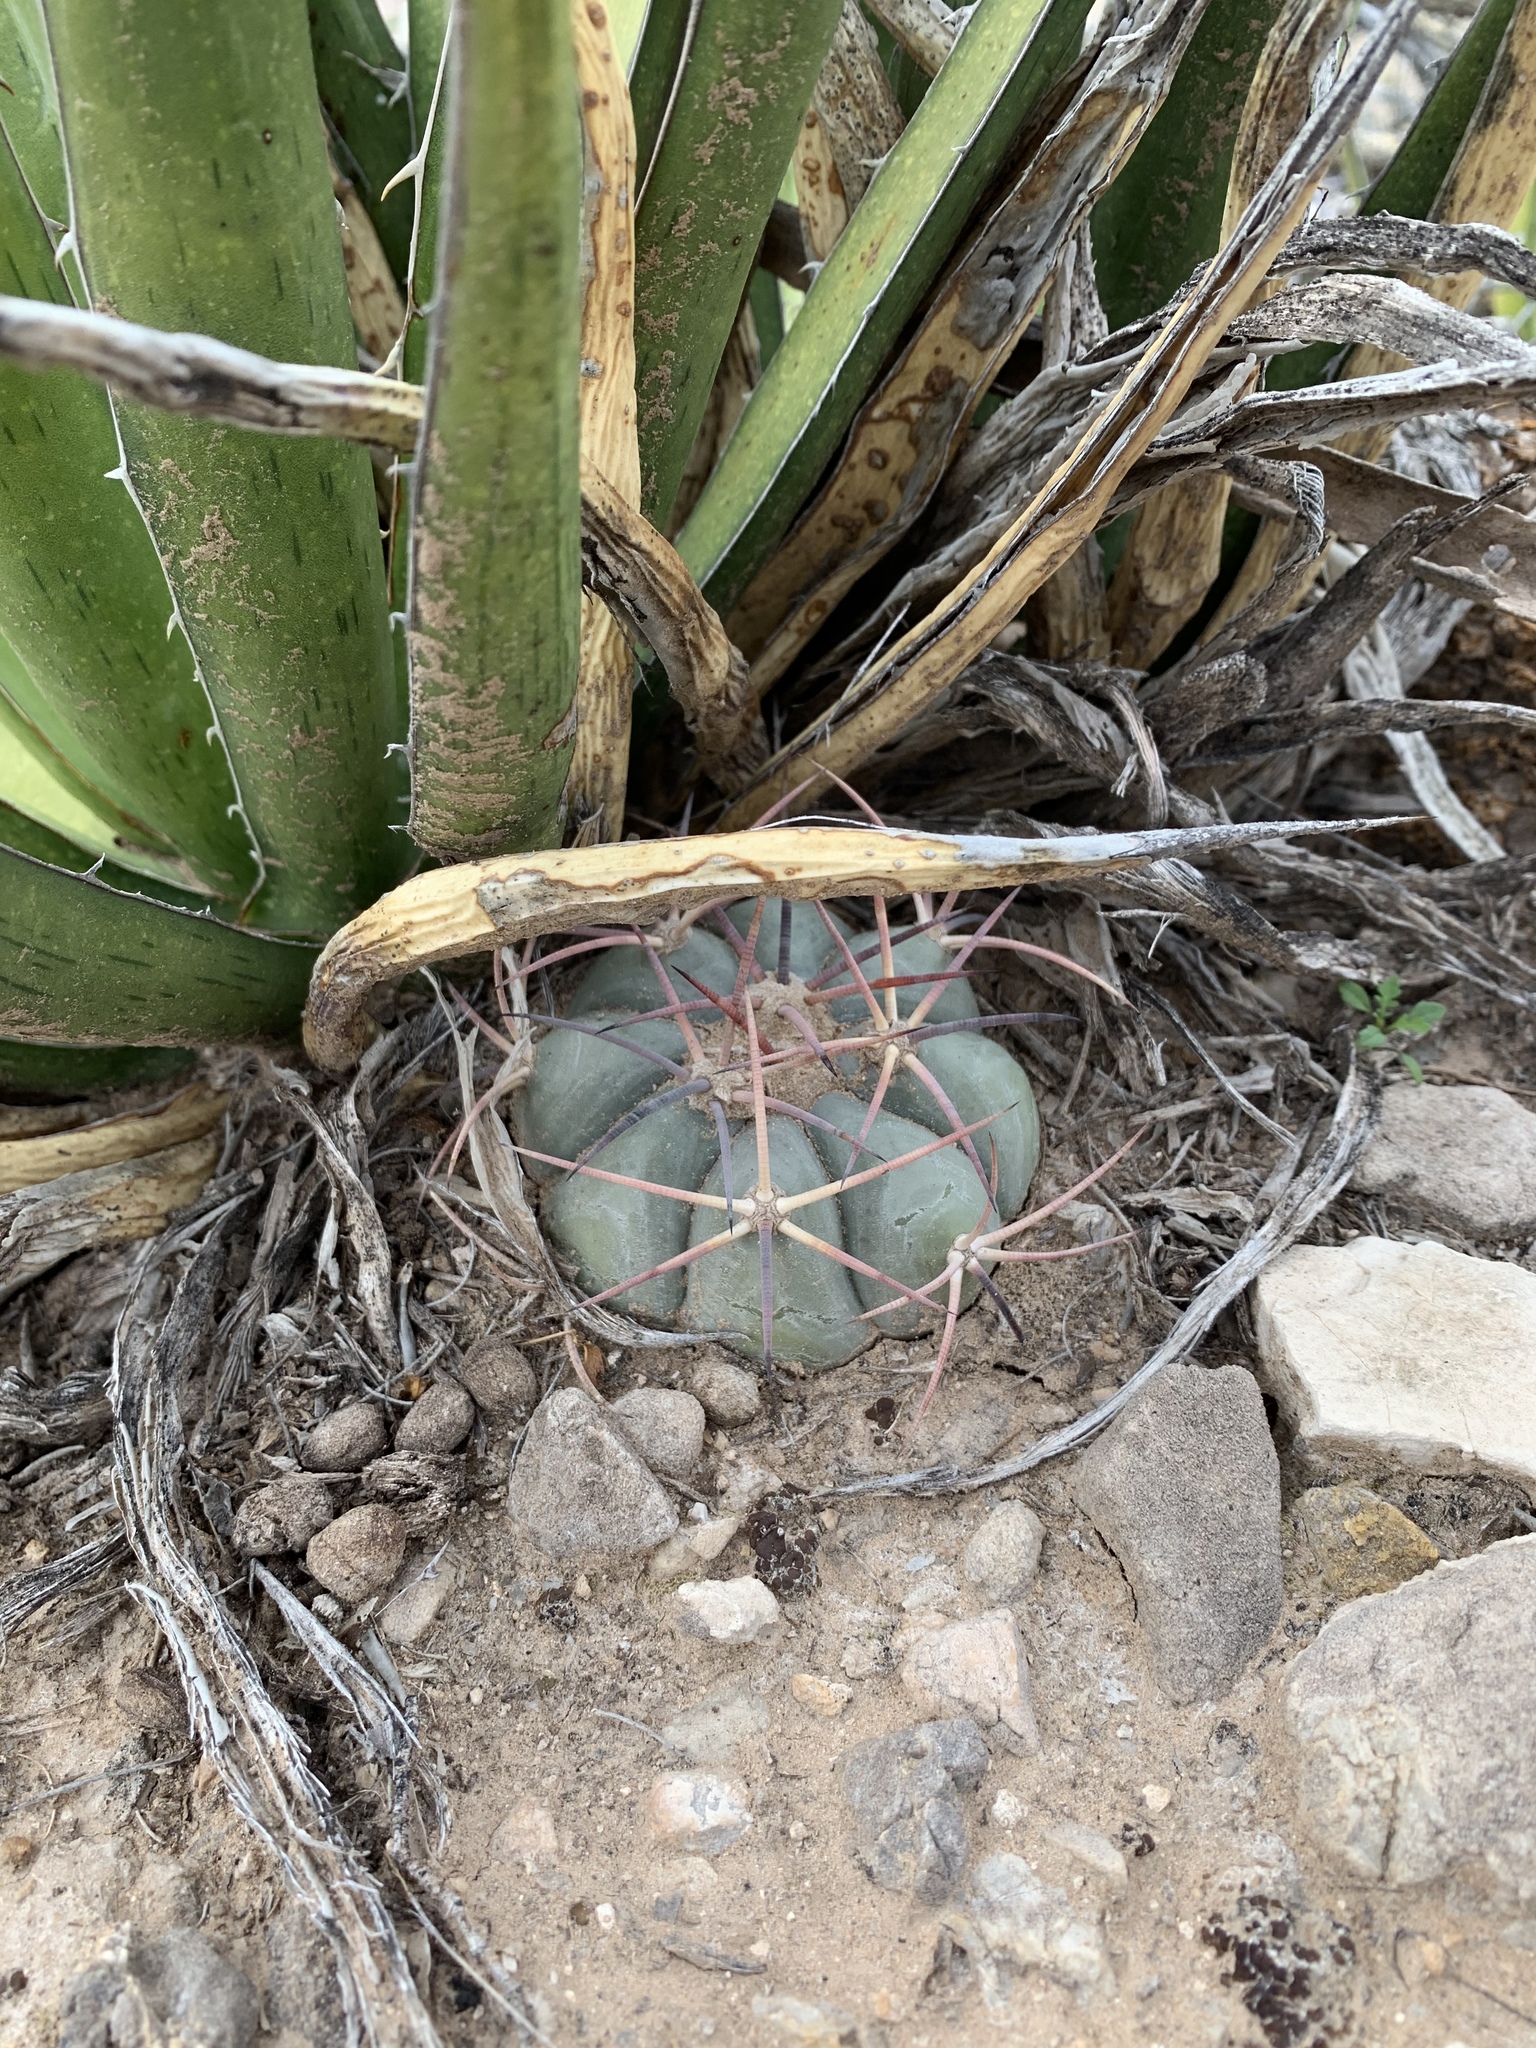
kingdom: Plantae
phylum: Tracheophyta
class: Magnoliopsida
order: Caryophyllales
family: Cactaceae
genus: Echinocactus
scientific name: Echinocactus horizonthalonius
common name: Devilshead
